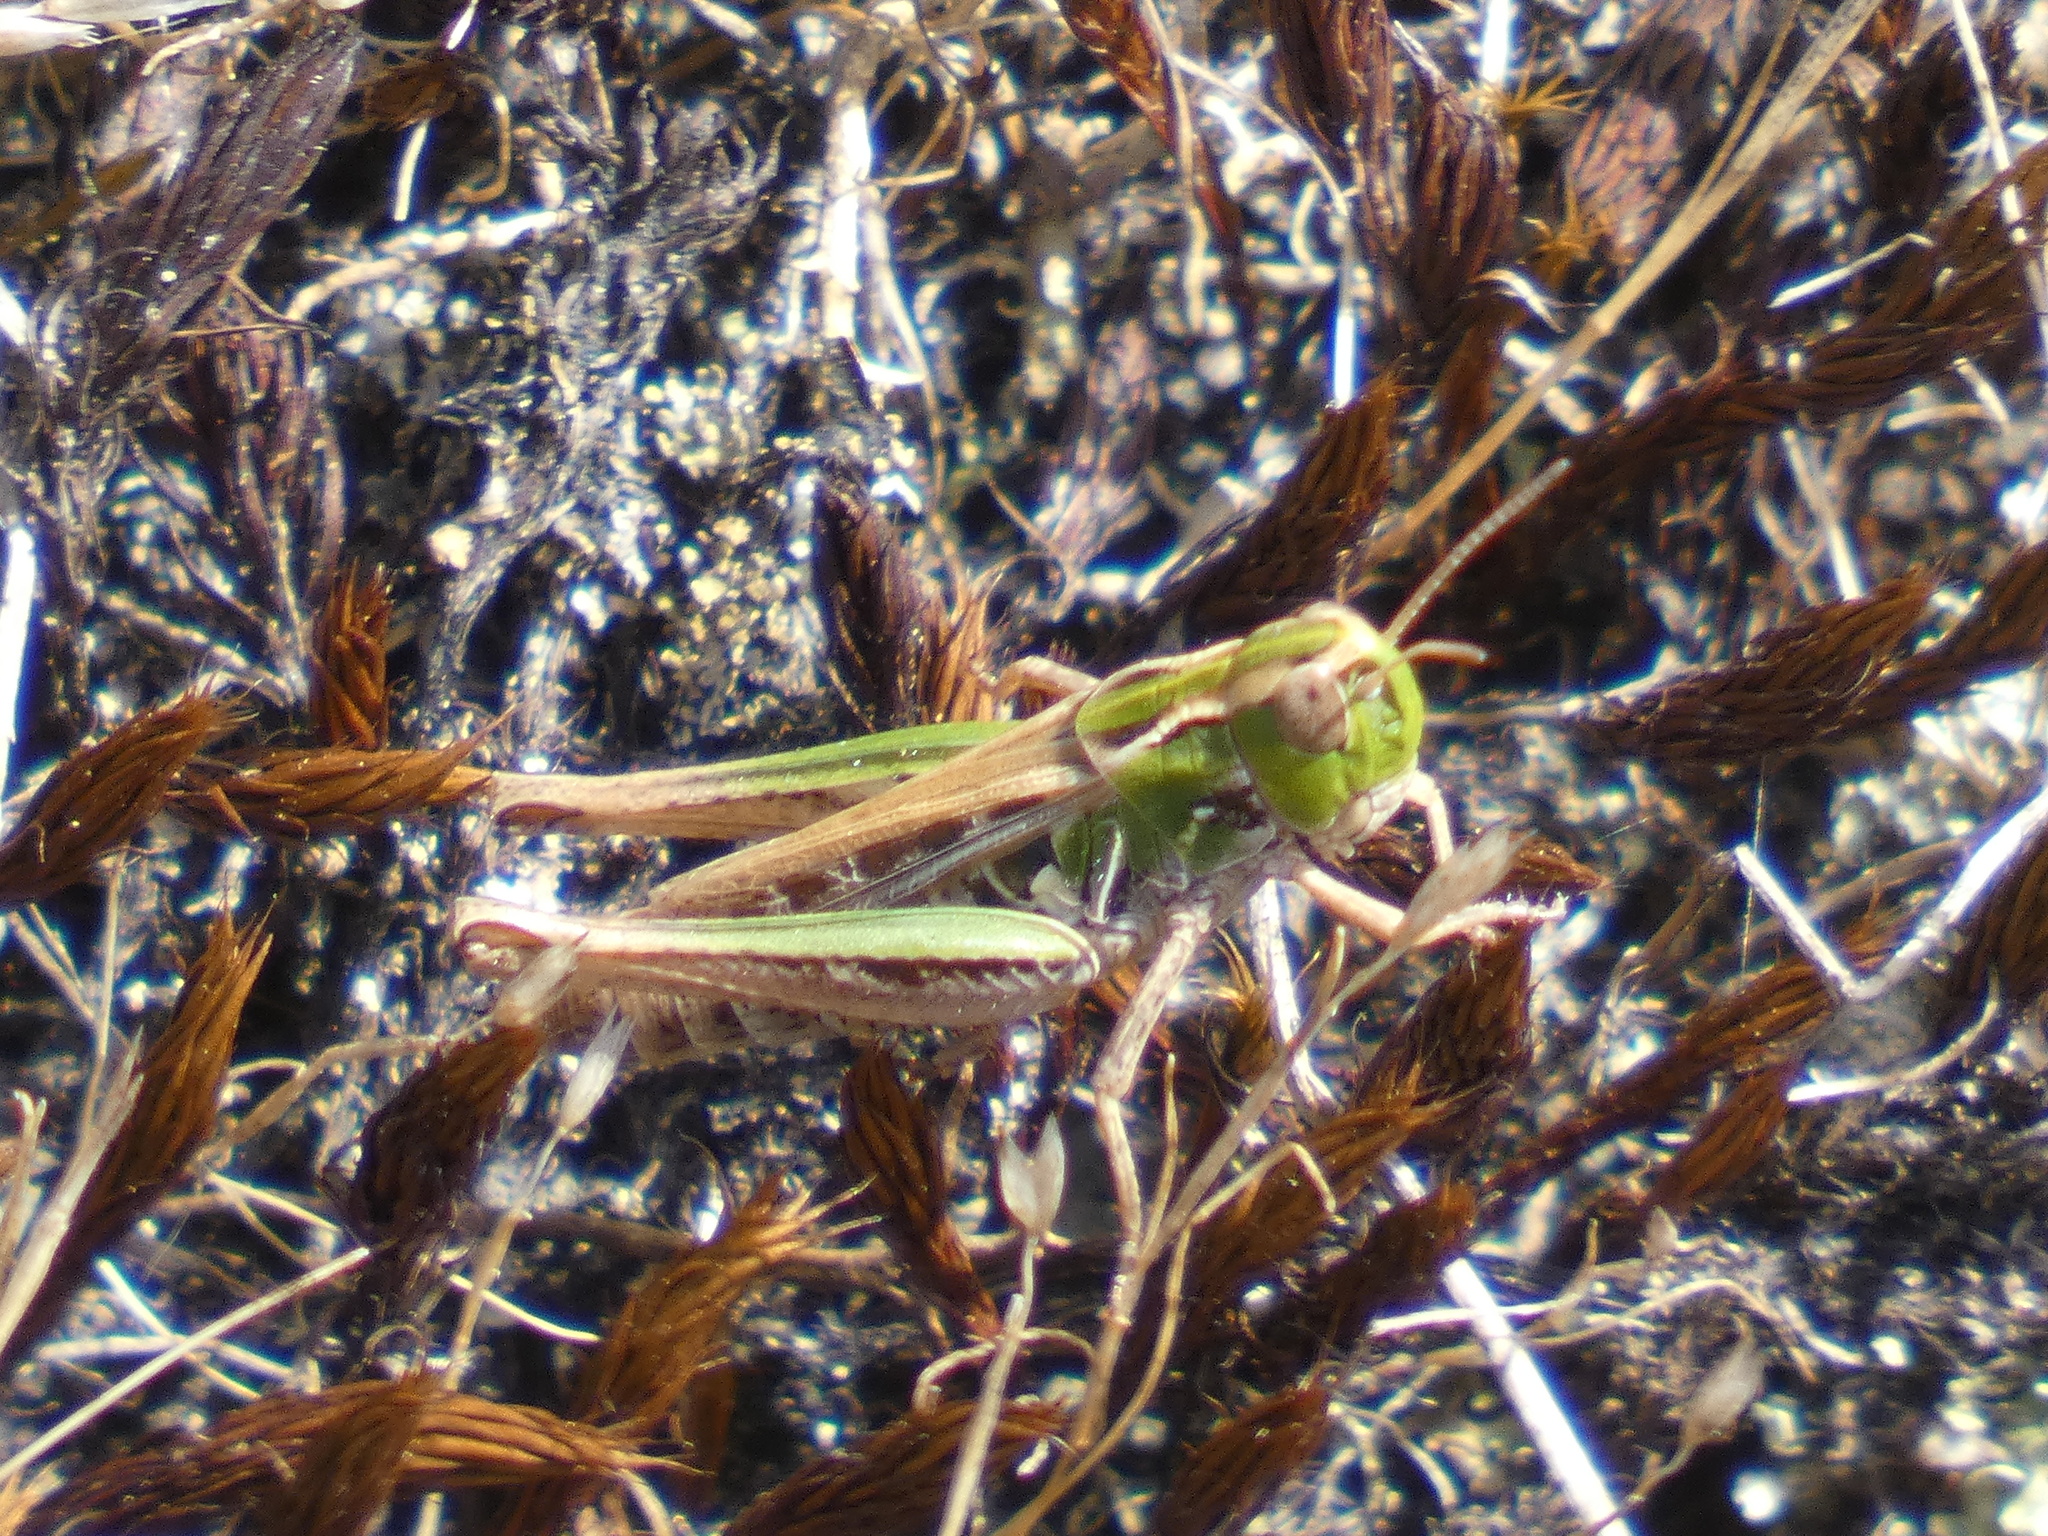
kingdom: Animalia
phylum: Arthropoda
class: Insecta
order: Orthoptera
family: Acrididae
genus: Stenobothrus
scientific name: Stenobothrus stigmaticus
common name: Lesser mottled grasshopper
